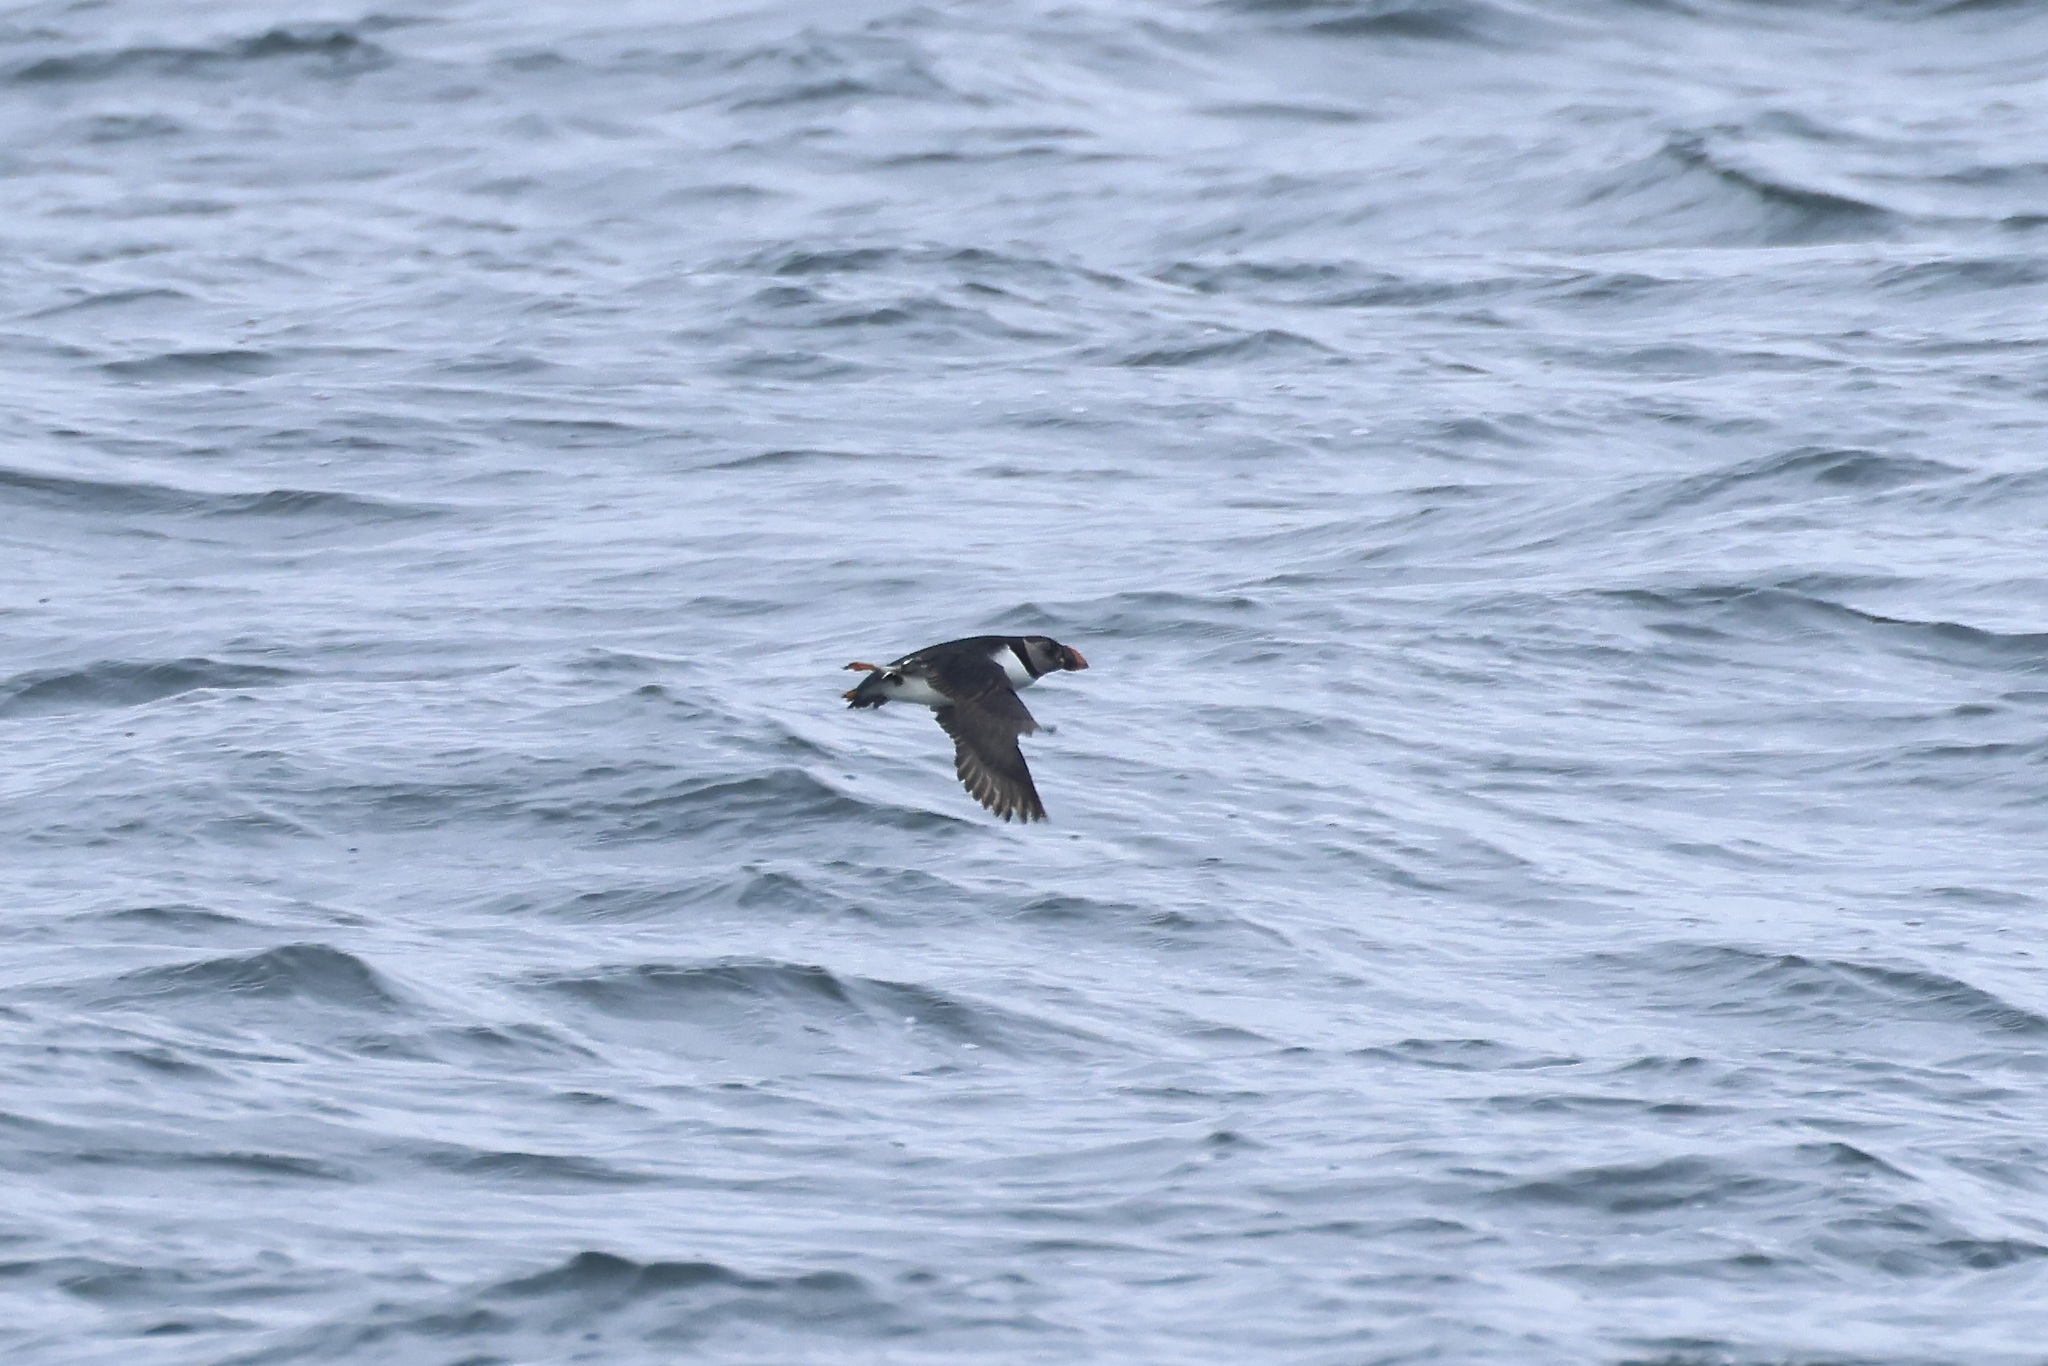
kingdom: Animalia
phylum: Chordata
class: Aves
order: Charadriiformes
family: Alcidae
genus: Fratercula
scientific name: Fratercula arctica
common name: Atlantic puffin
